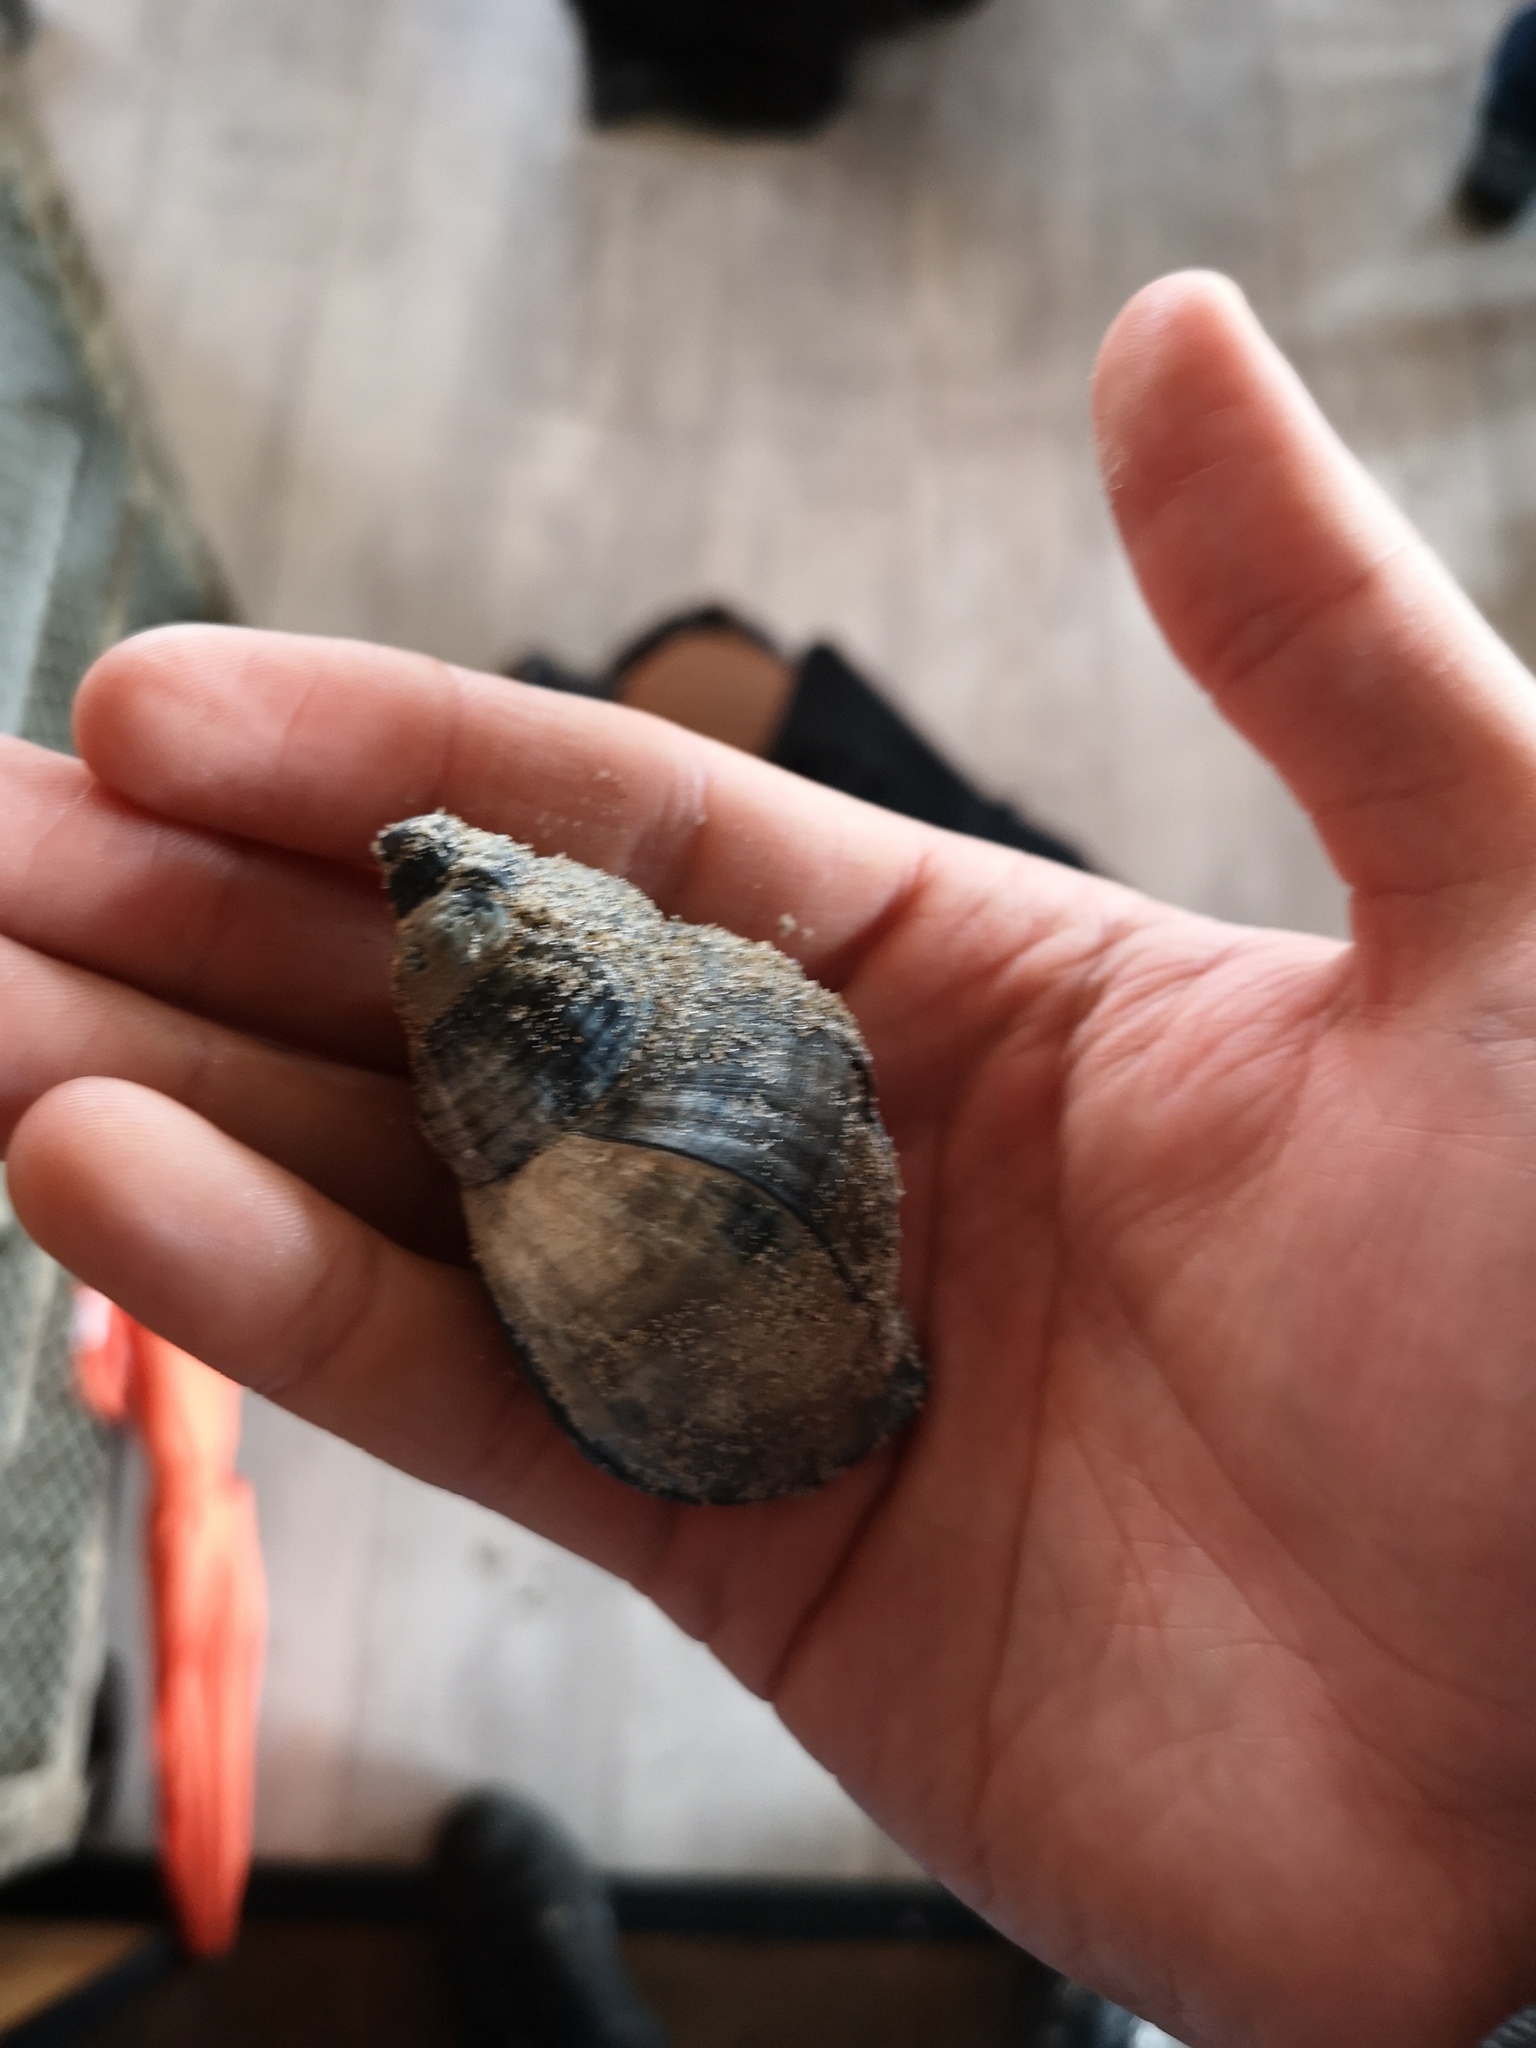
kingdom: Animalia
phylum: Mollusca
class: Gastropoda
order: Neogastropoda
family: Buccinidae
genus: Buccinum
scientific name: Buccinum undatum
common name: Common whelk
